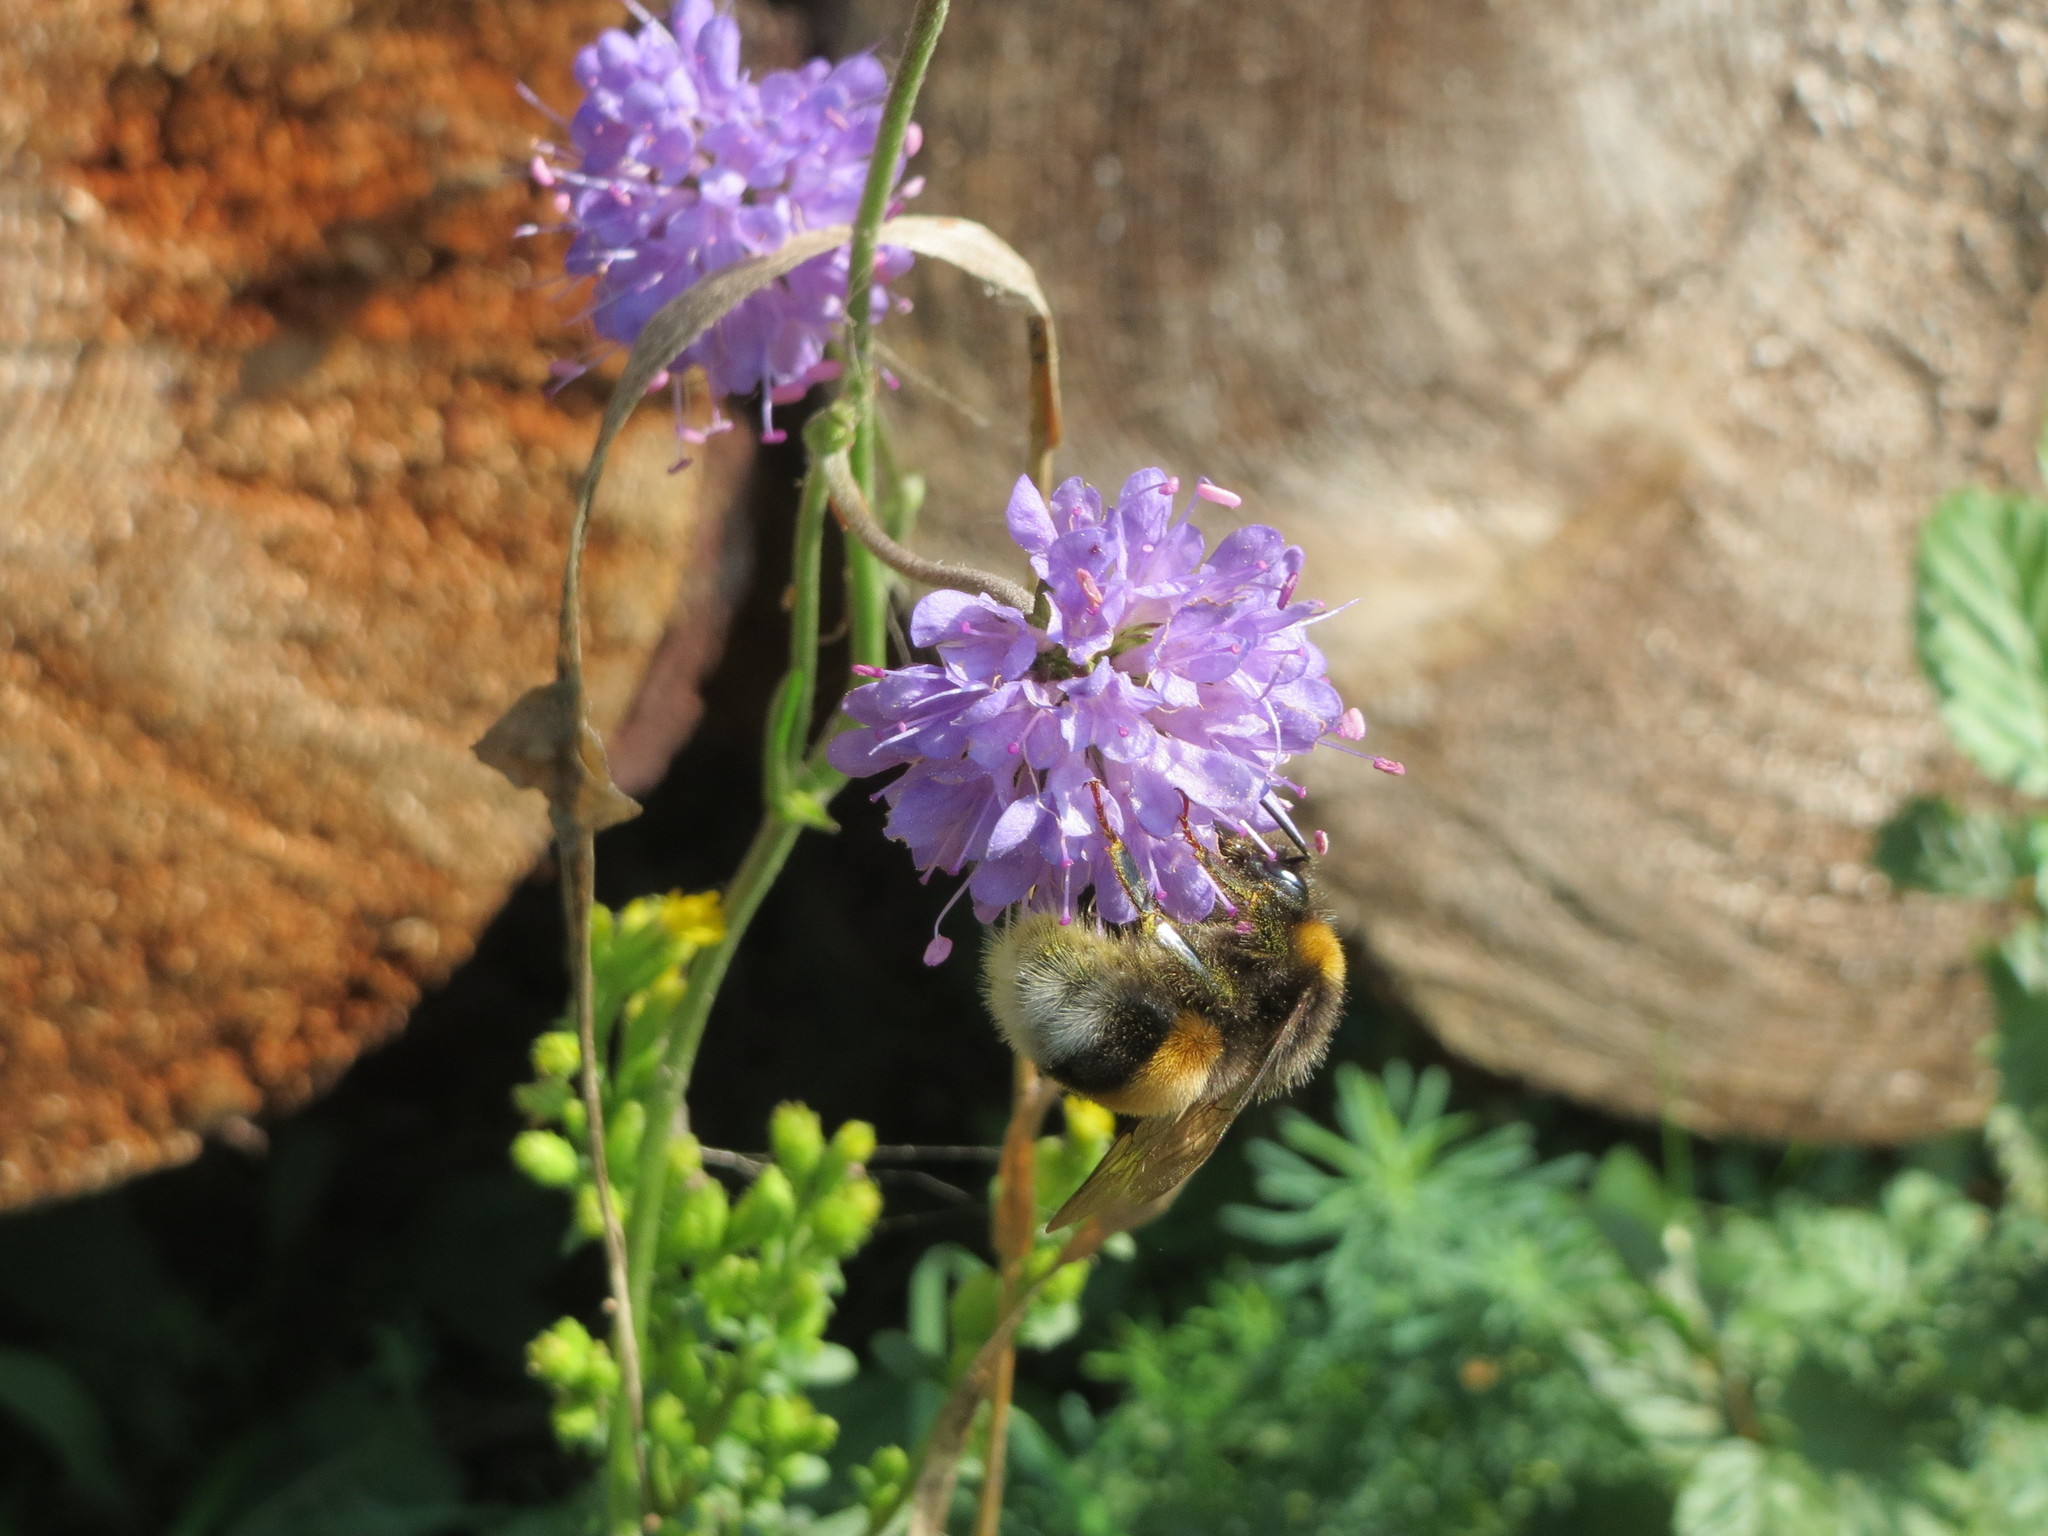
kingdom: Plantae
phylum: Tracheophyta
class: Magnoliopsida
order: Dipsacales
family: Caprifoliaceae
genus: Succisa
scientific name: Succisa pratensis
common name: Devil's-bit
